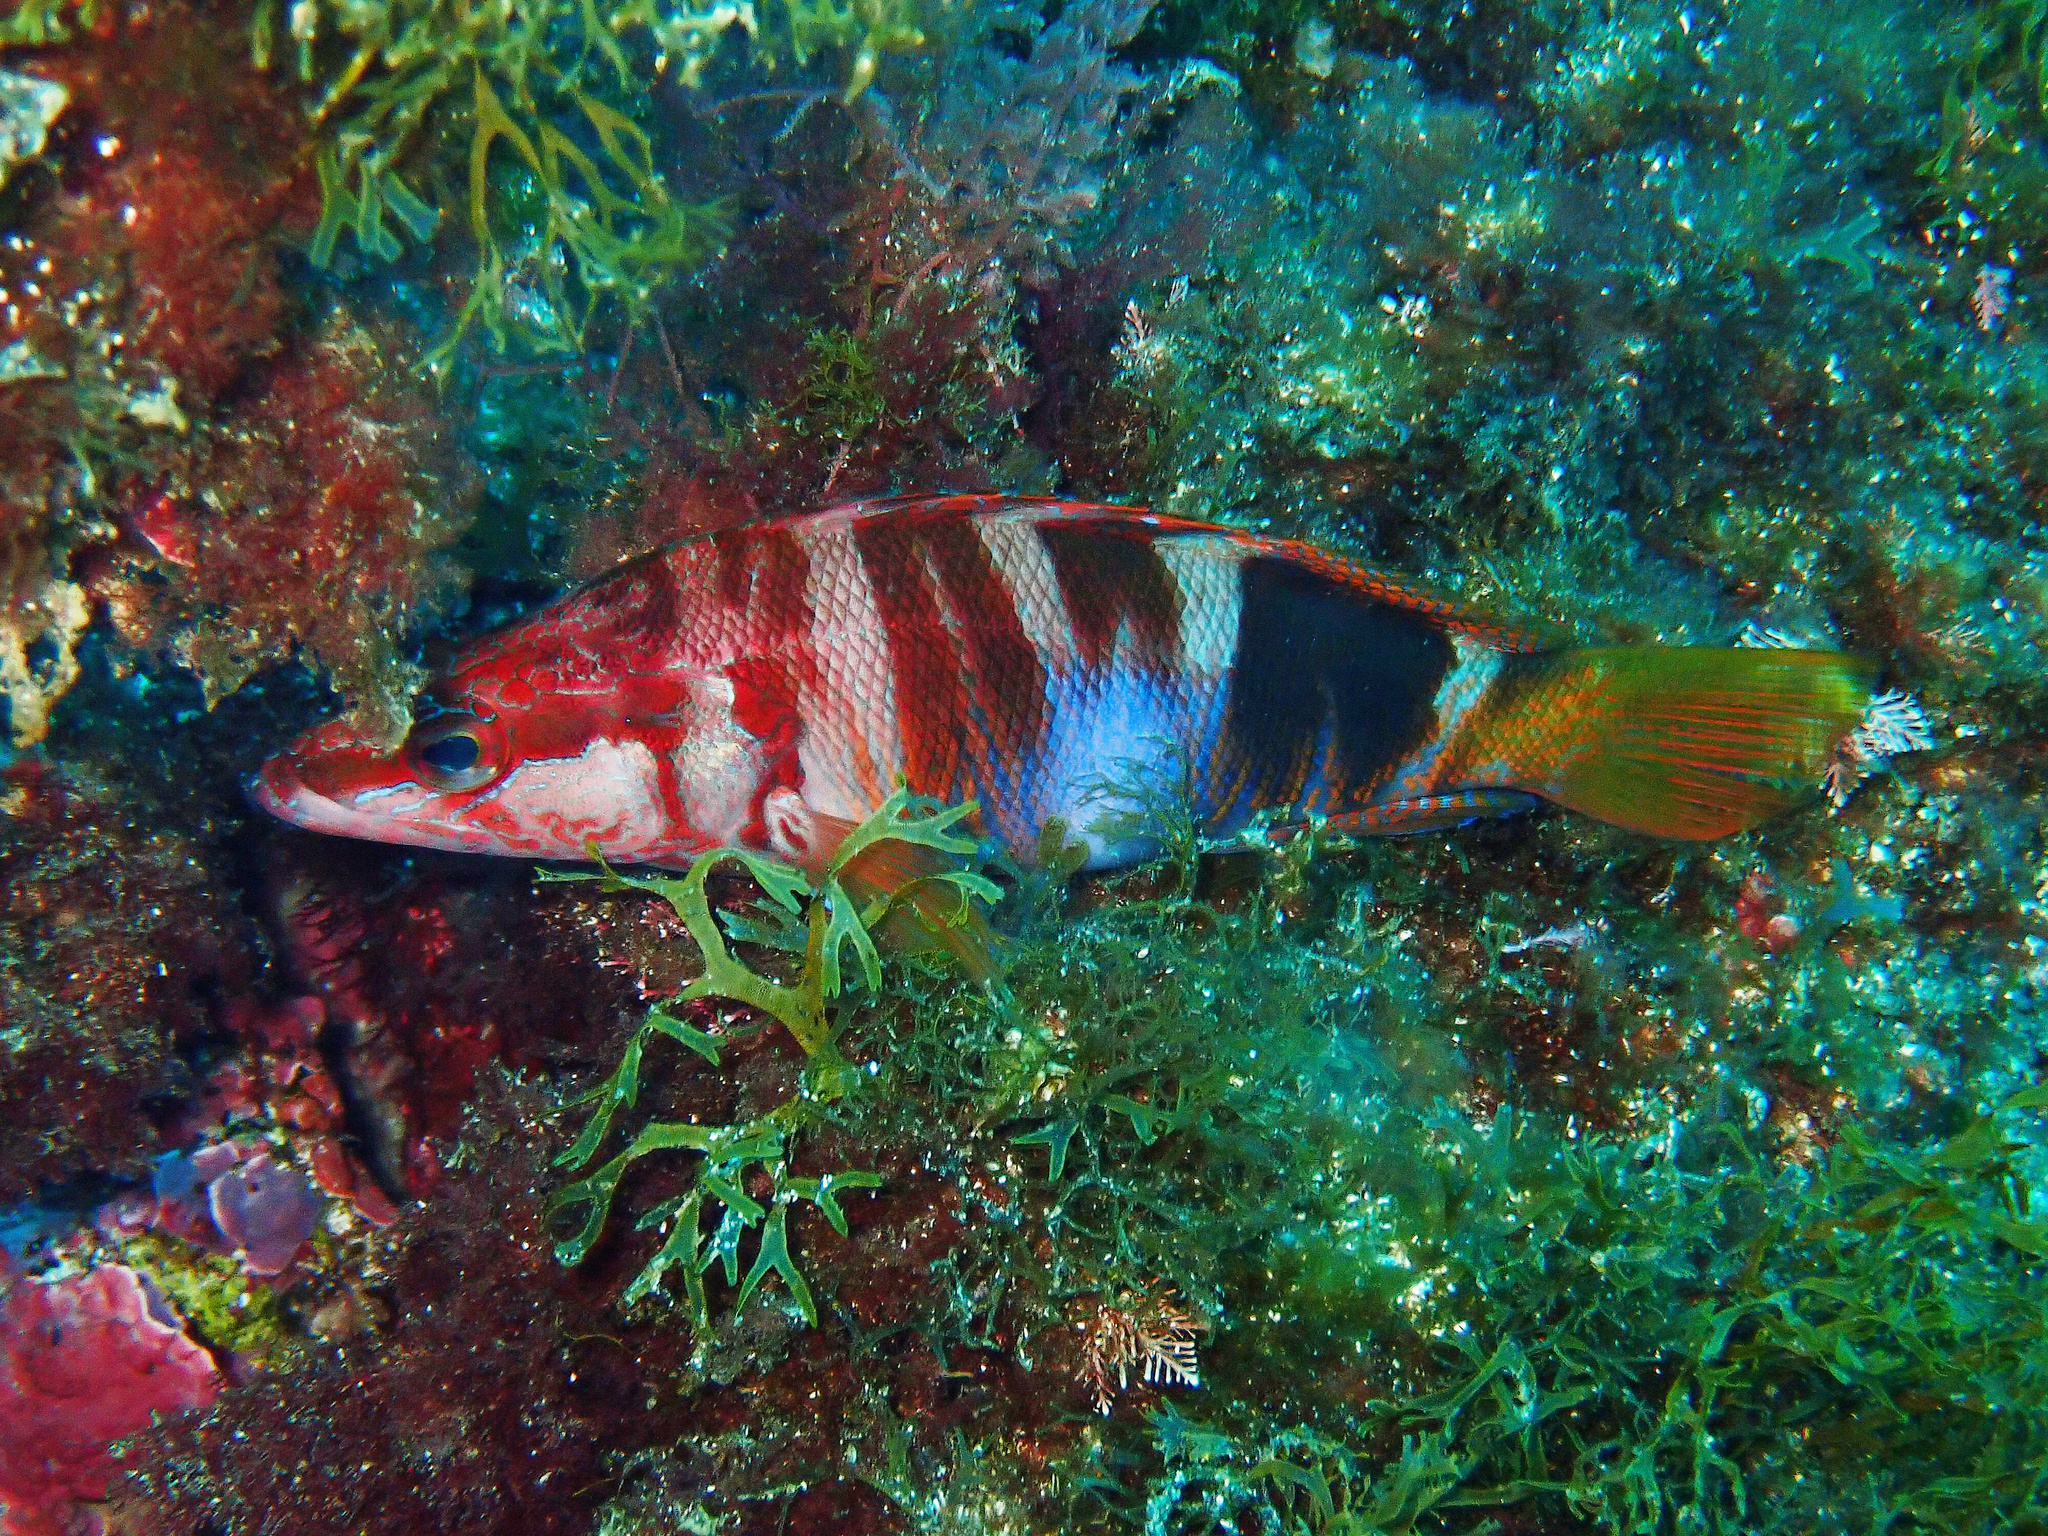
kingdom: Animalia
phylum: Chordata
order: Perciformes
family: Serranidae
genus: Serranus
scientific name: Serranus scriba
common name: Painted comber
